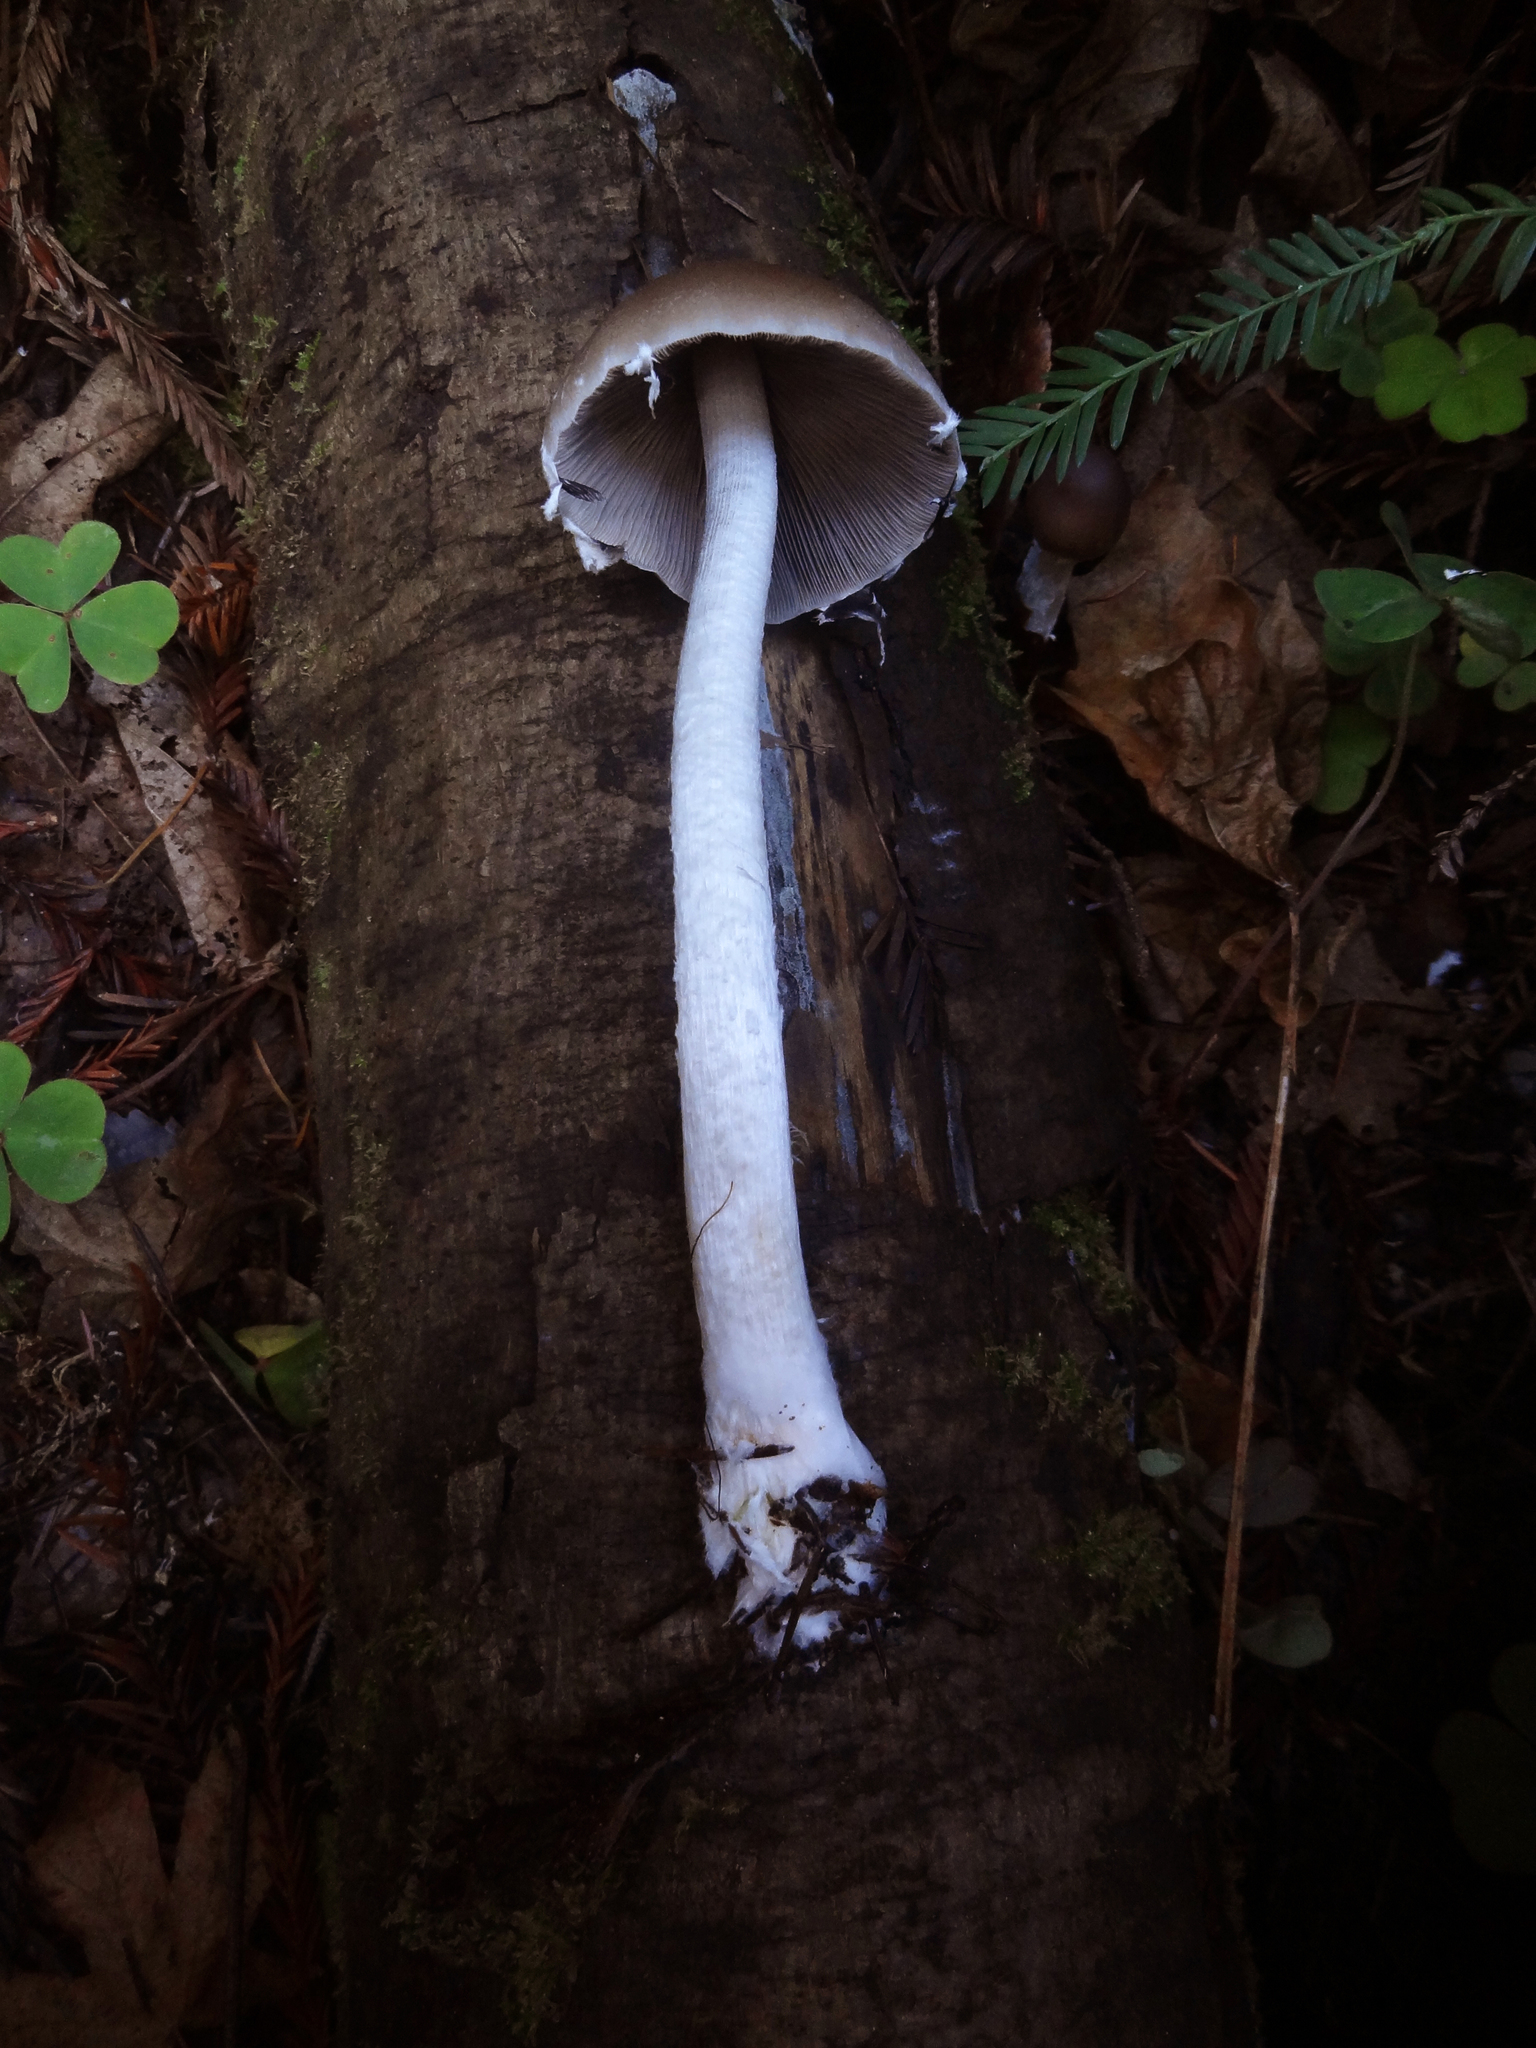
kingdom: Fungi
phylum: Basidiomycota
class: Agaricomycetes
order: Agaricales
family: Psathyrellaceae
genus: Psathyrella
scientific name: Psathyrella longipes
